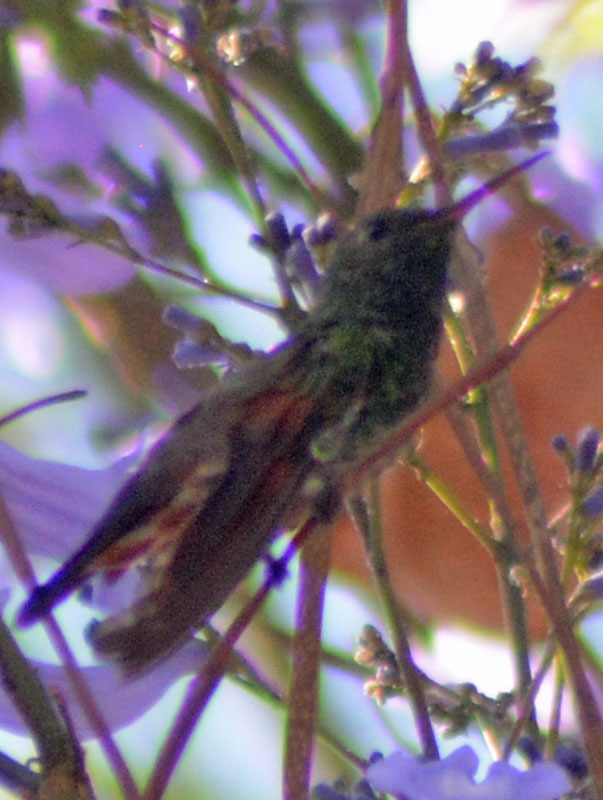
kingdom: Animalia
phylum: Chordata
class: Aves
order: Apodiformes
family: Trochilidae
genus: Saucerottia
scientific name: Saucerottia beryllina
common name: Berylline hummingbird
